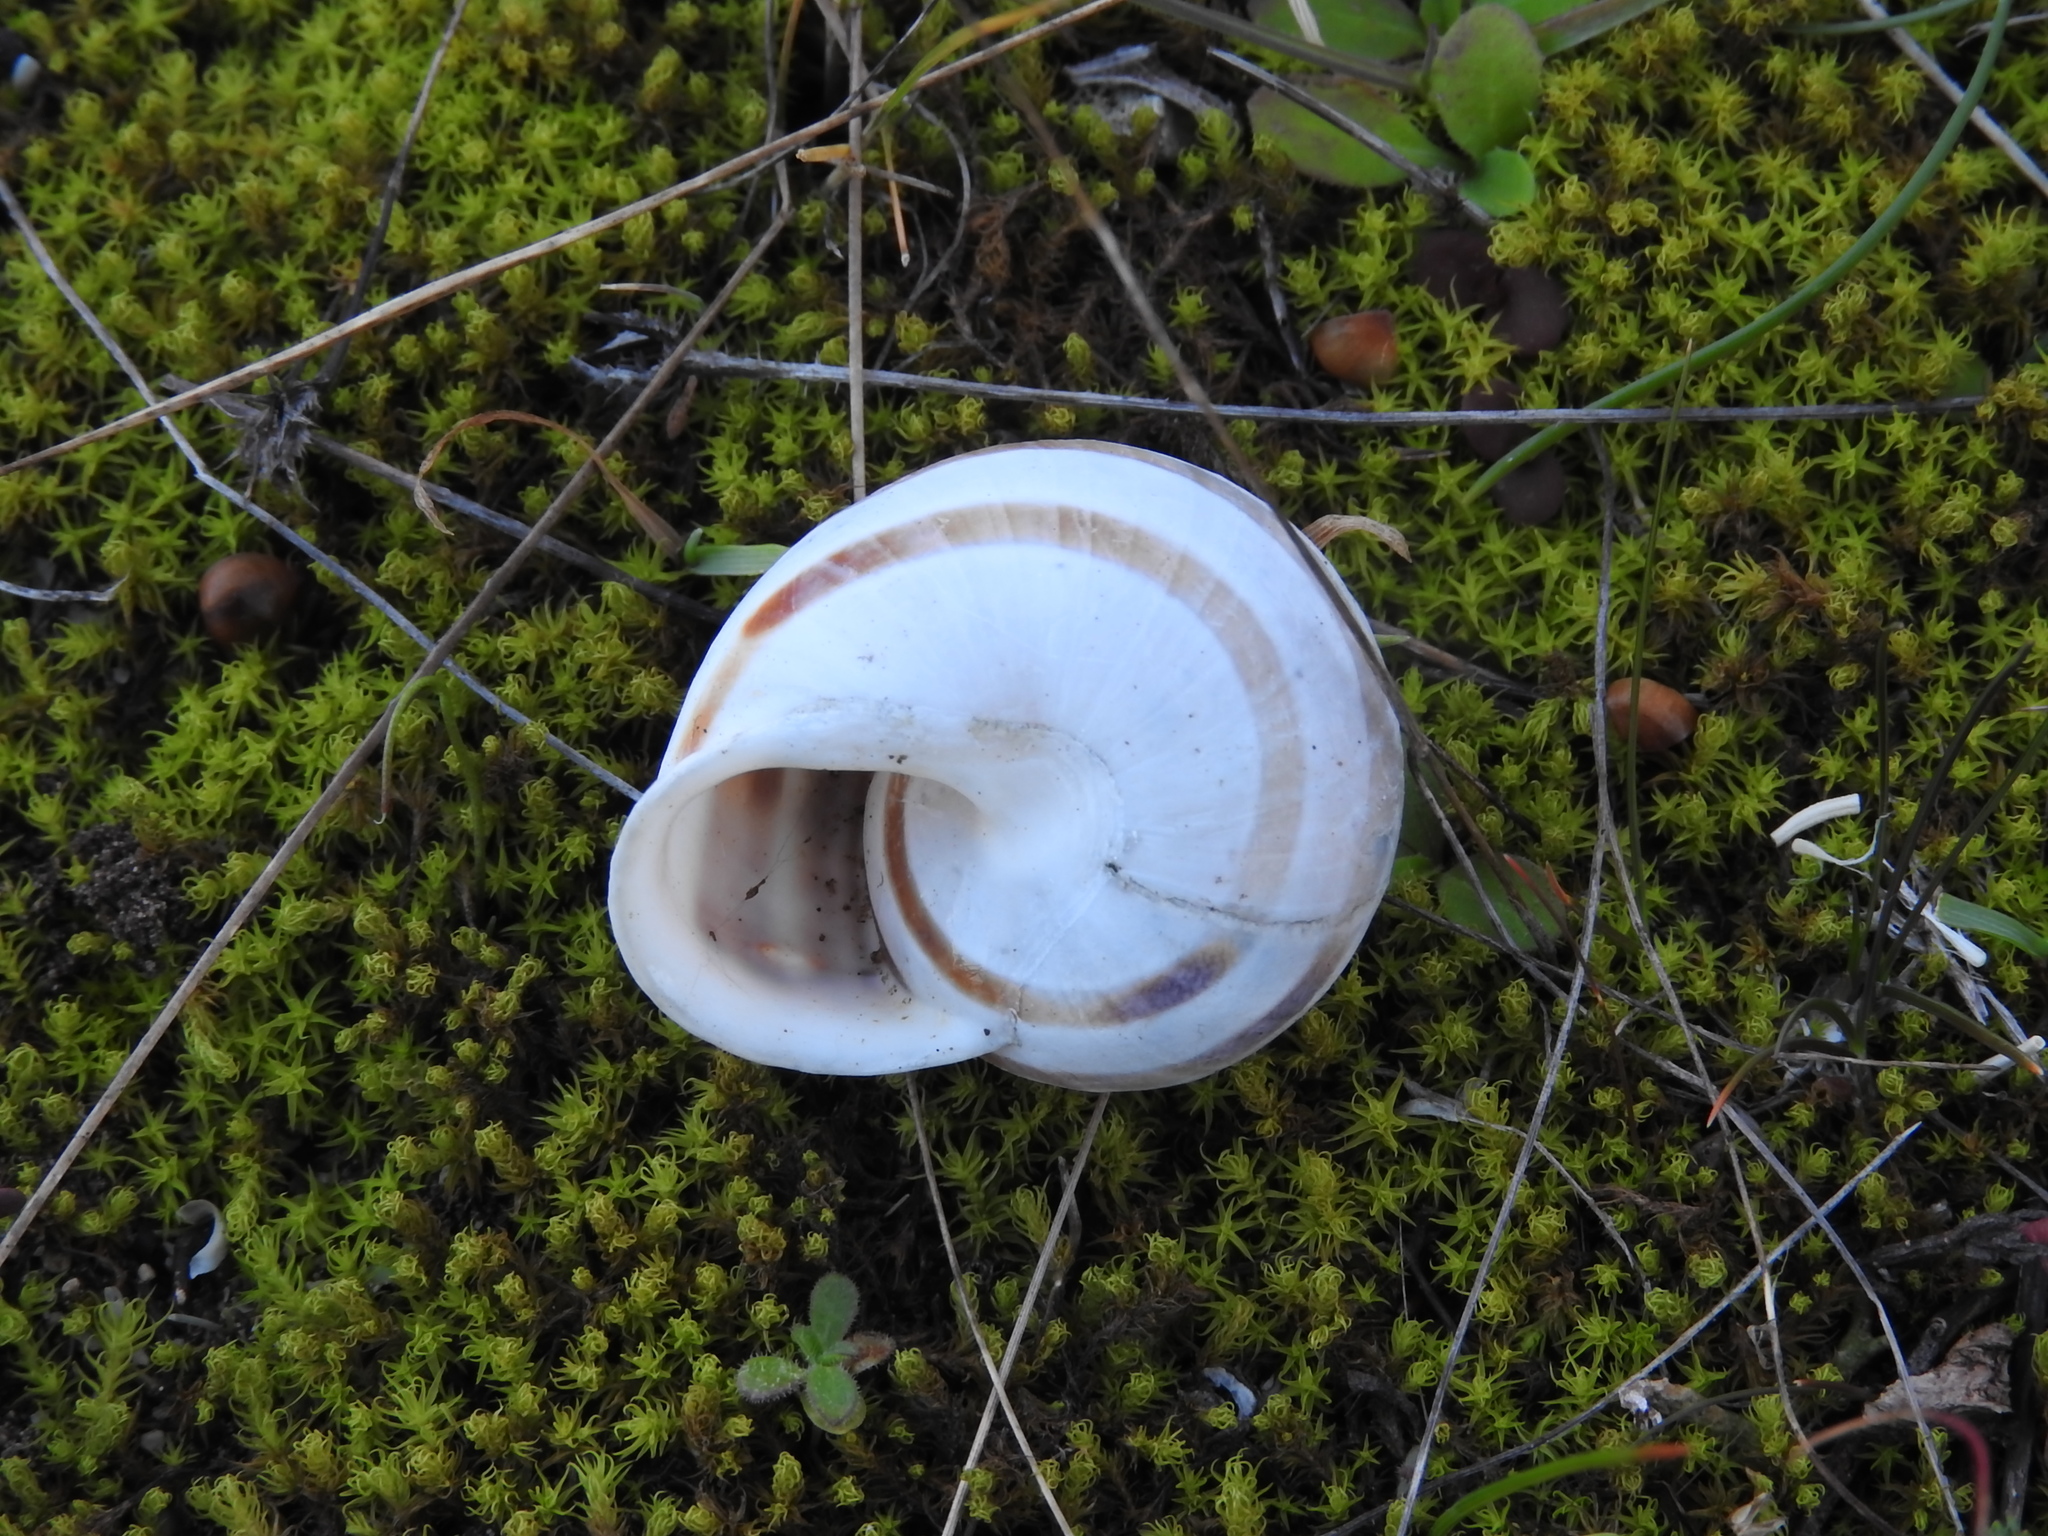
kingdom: Animalia
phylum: Mollusca
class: Gastropoda
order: Stylommatophora
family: Helicidae
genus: Eobania
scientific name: Eobania vermiculata
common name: Chocolateband snail
